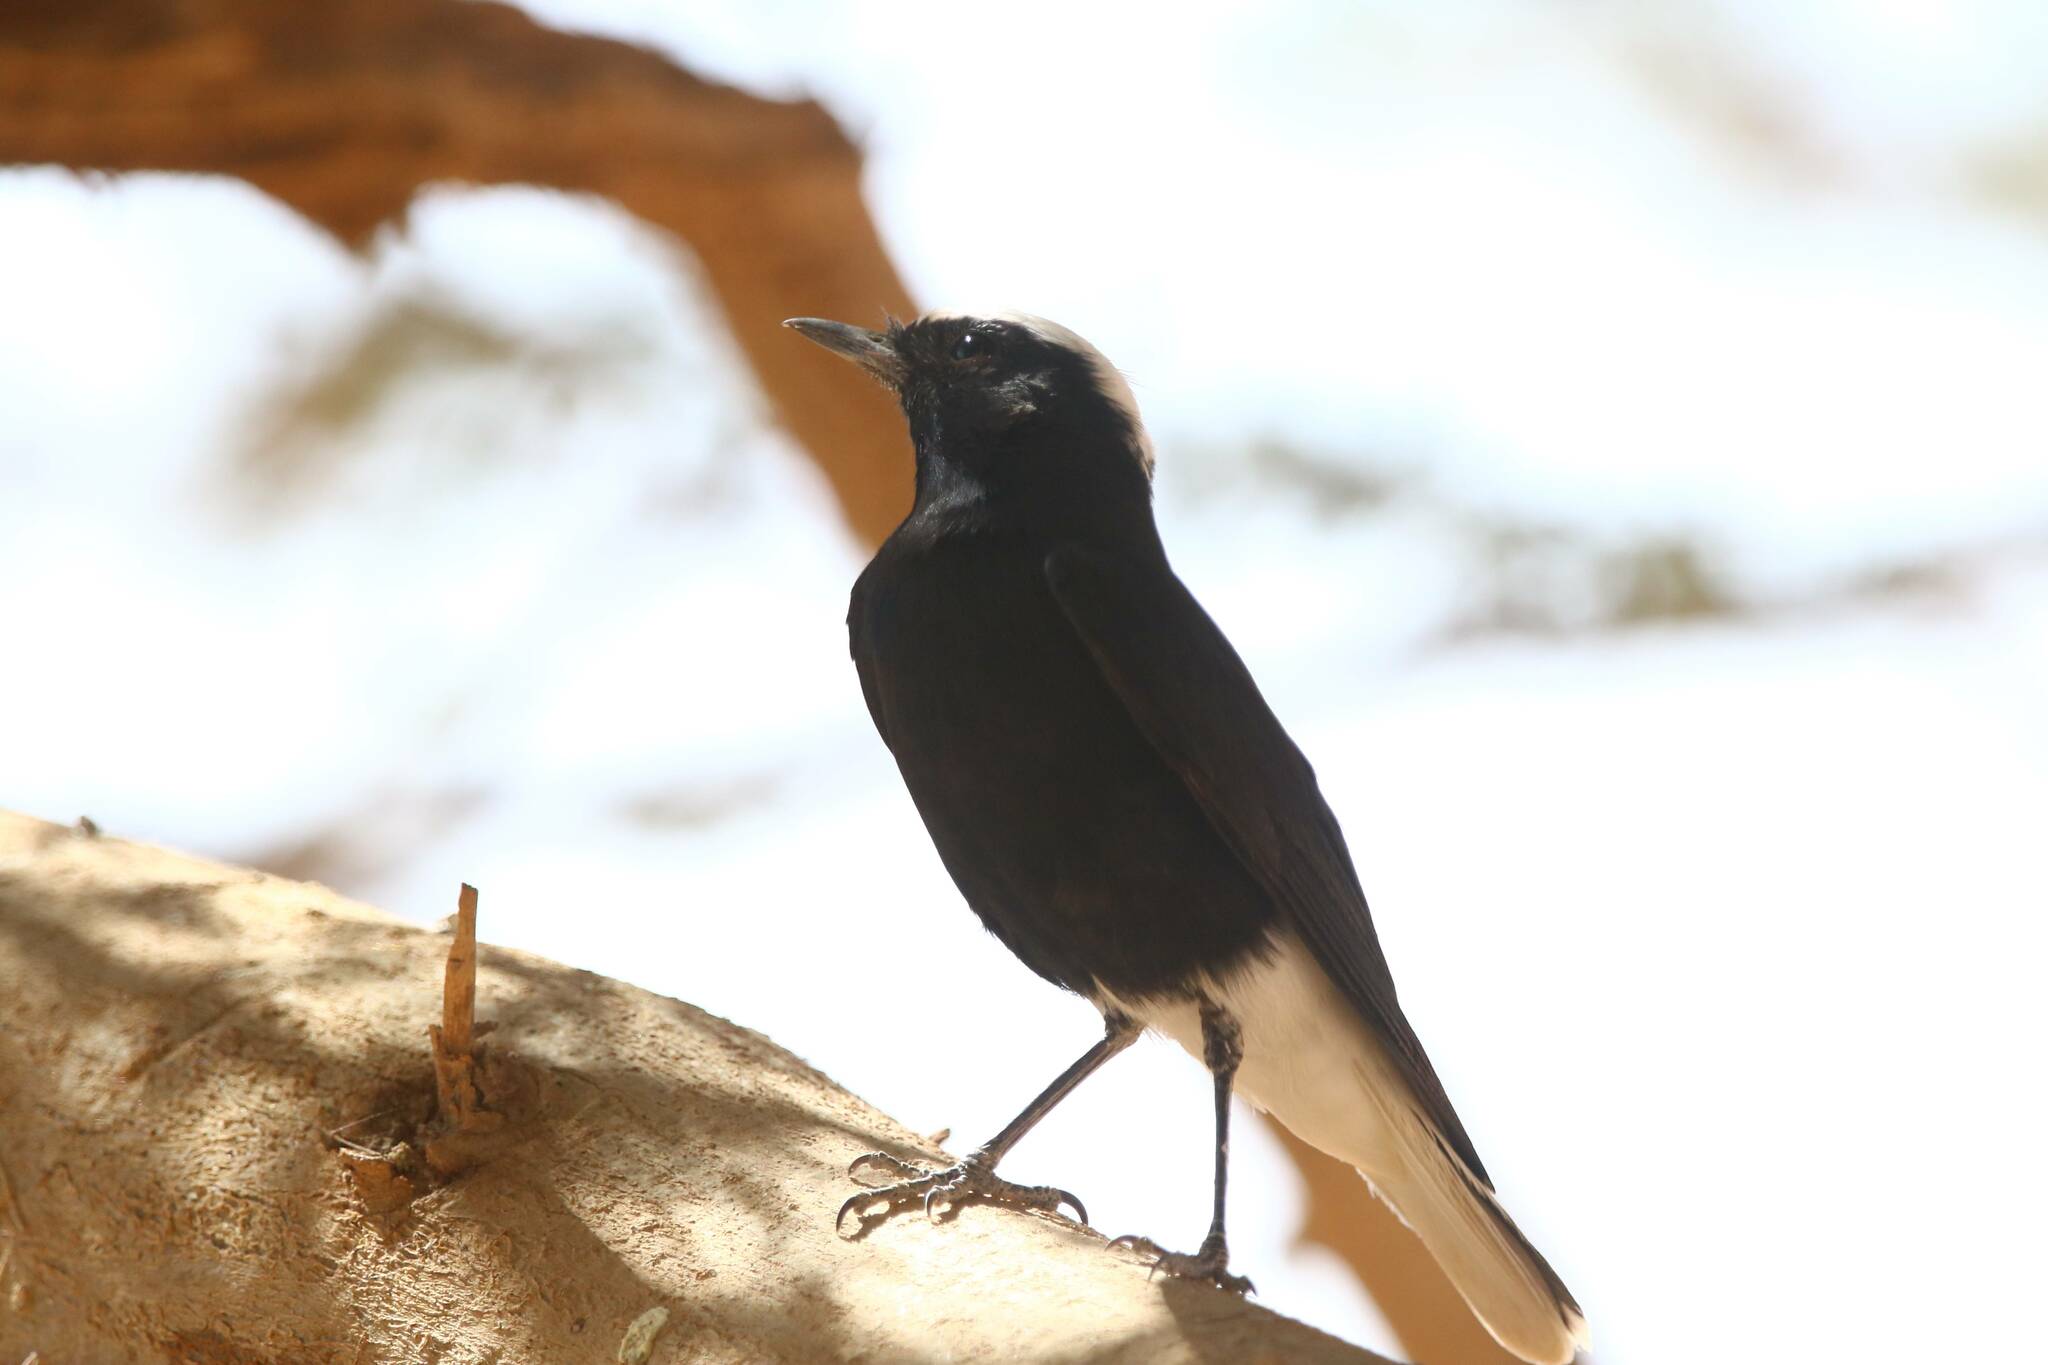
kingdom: Animalia
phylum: Chordata
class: Aves
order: Passeriformes
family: Muscicapidae
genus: Oenanthe
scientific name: Oenanthe leucopyga
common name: White-crowned wheatear
